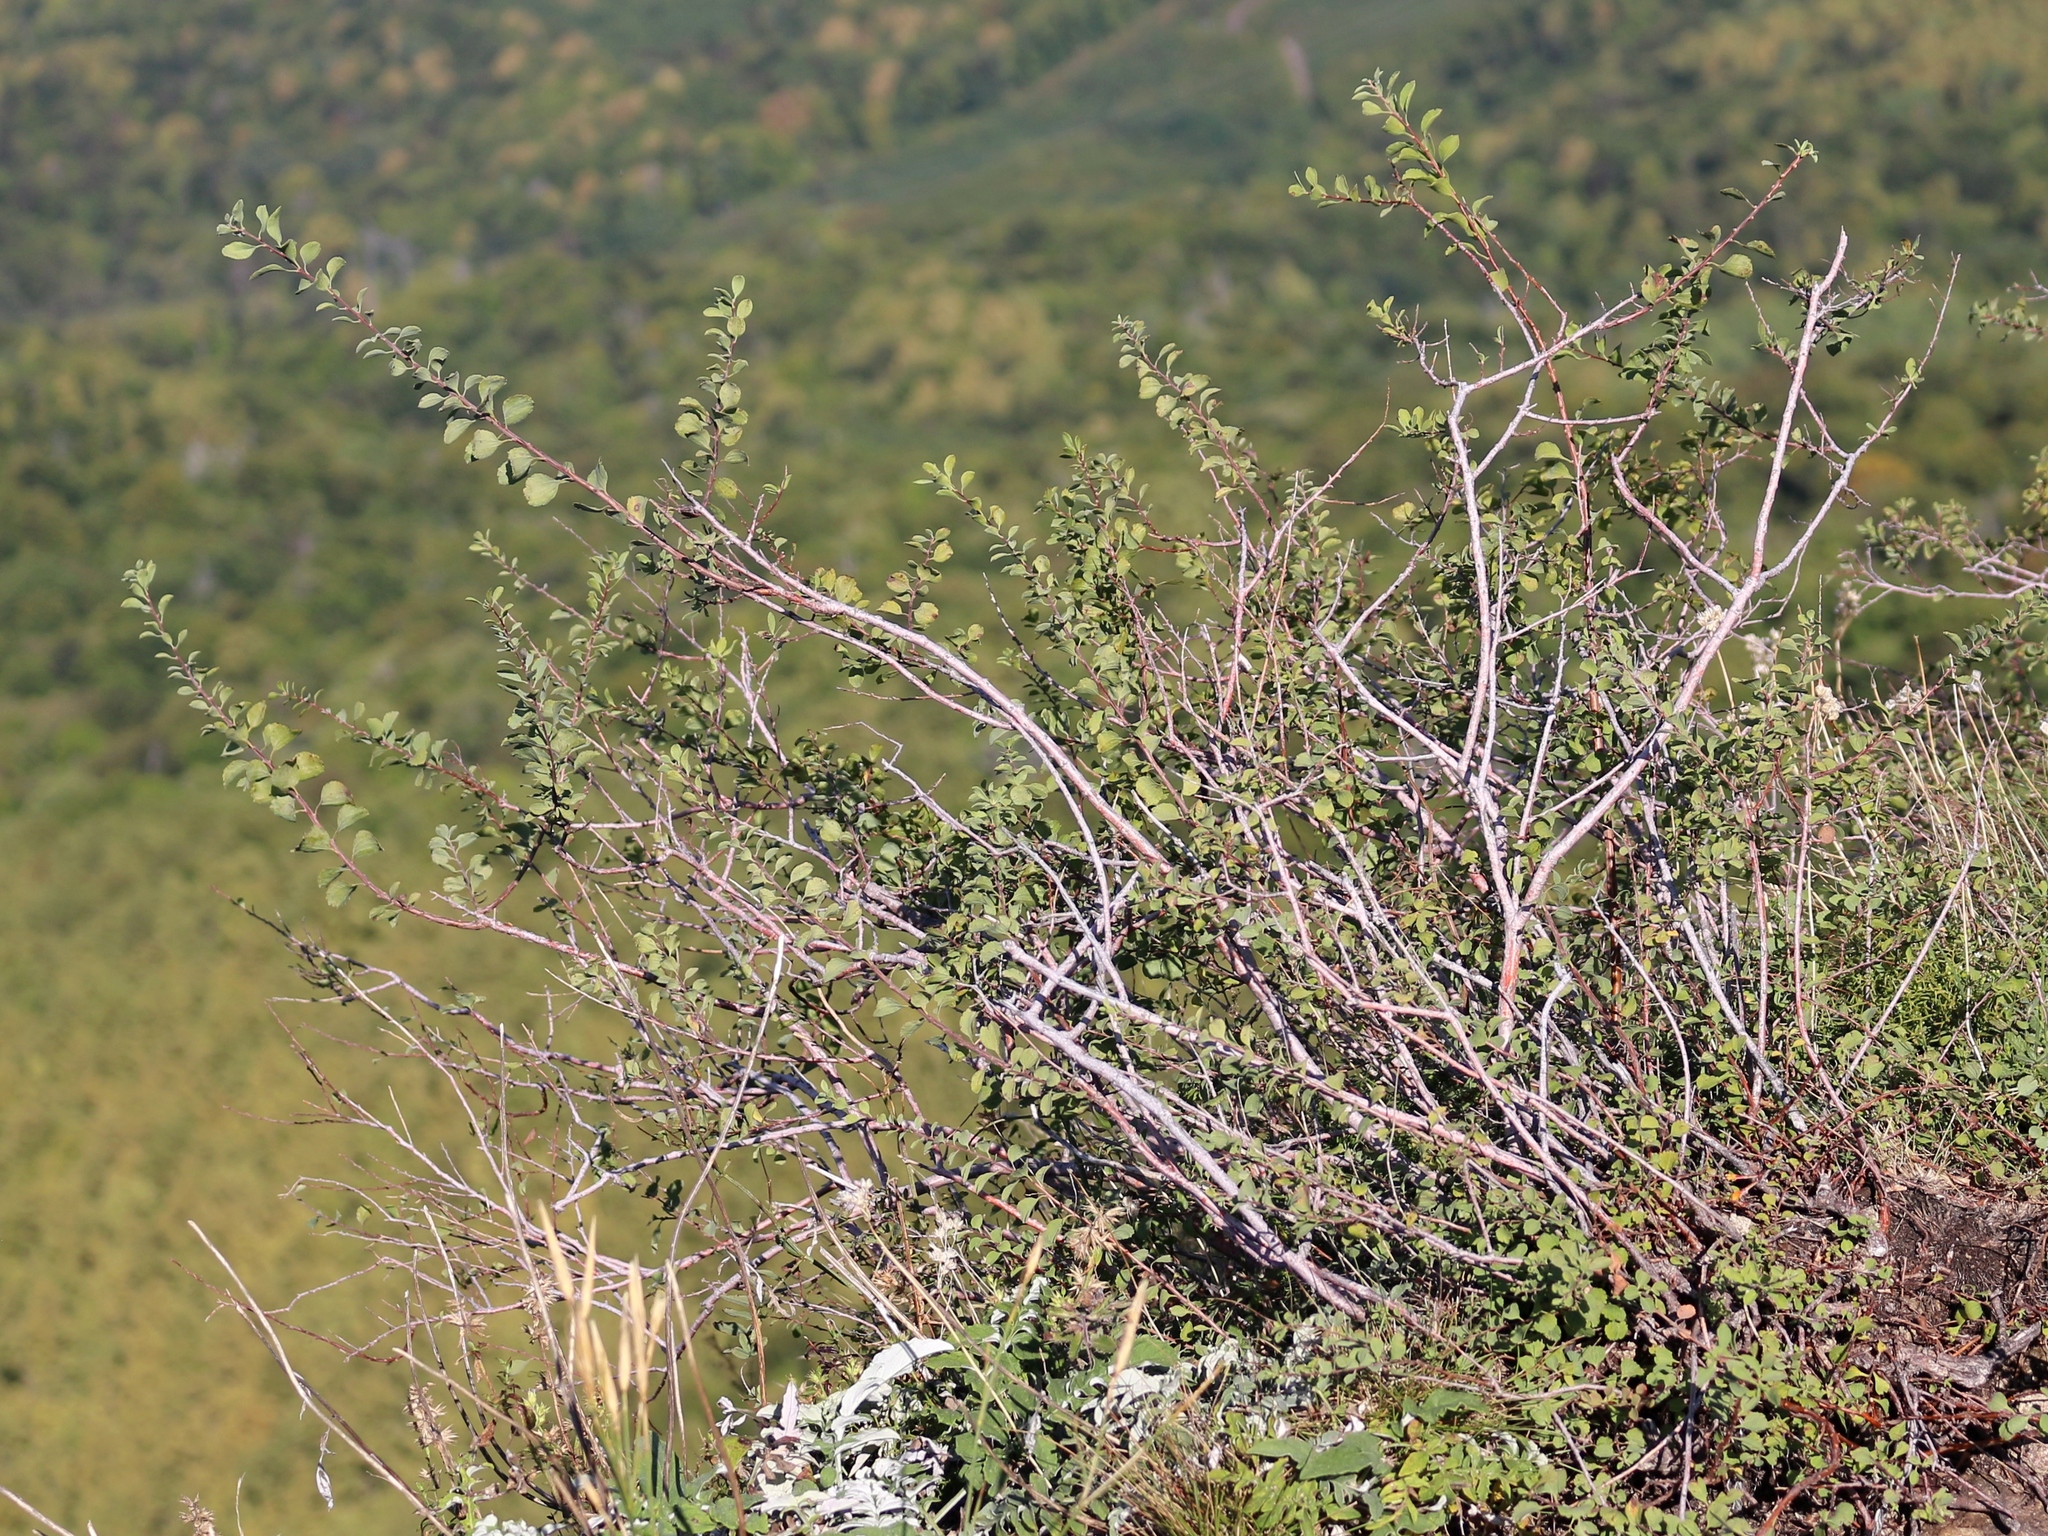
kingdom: Plantae
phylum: Tracheophyta
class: Magnoliopsida
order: Rosales
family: Rosaceae
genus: Spiraea
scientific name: Spiraea crenata
